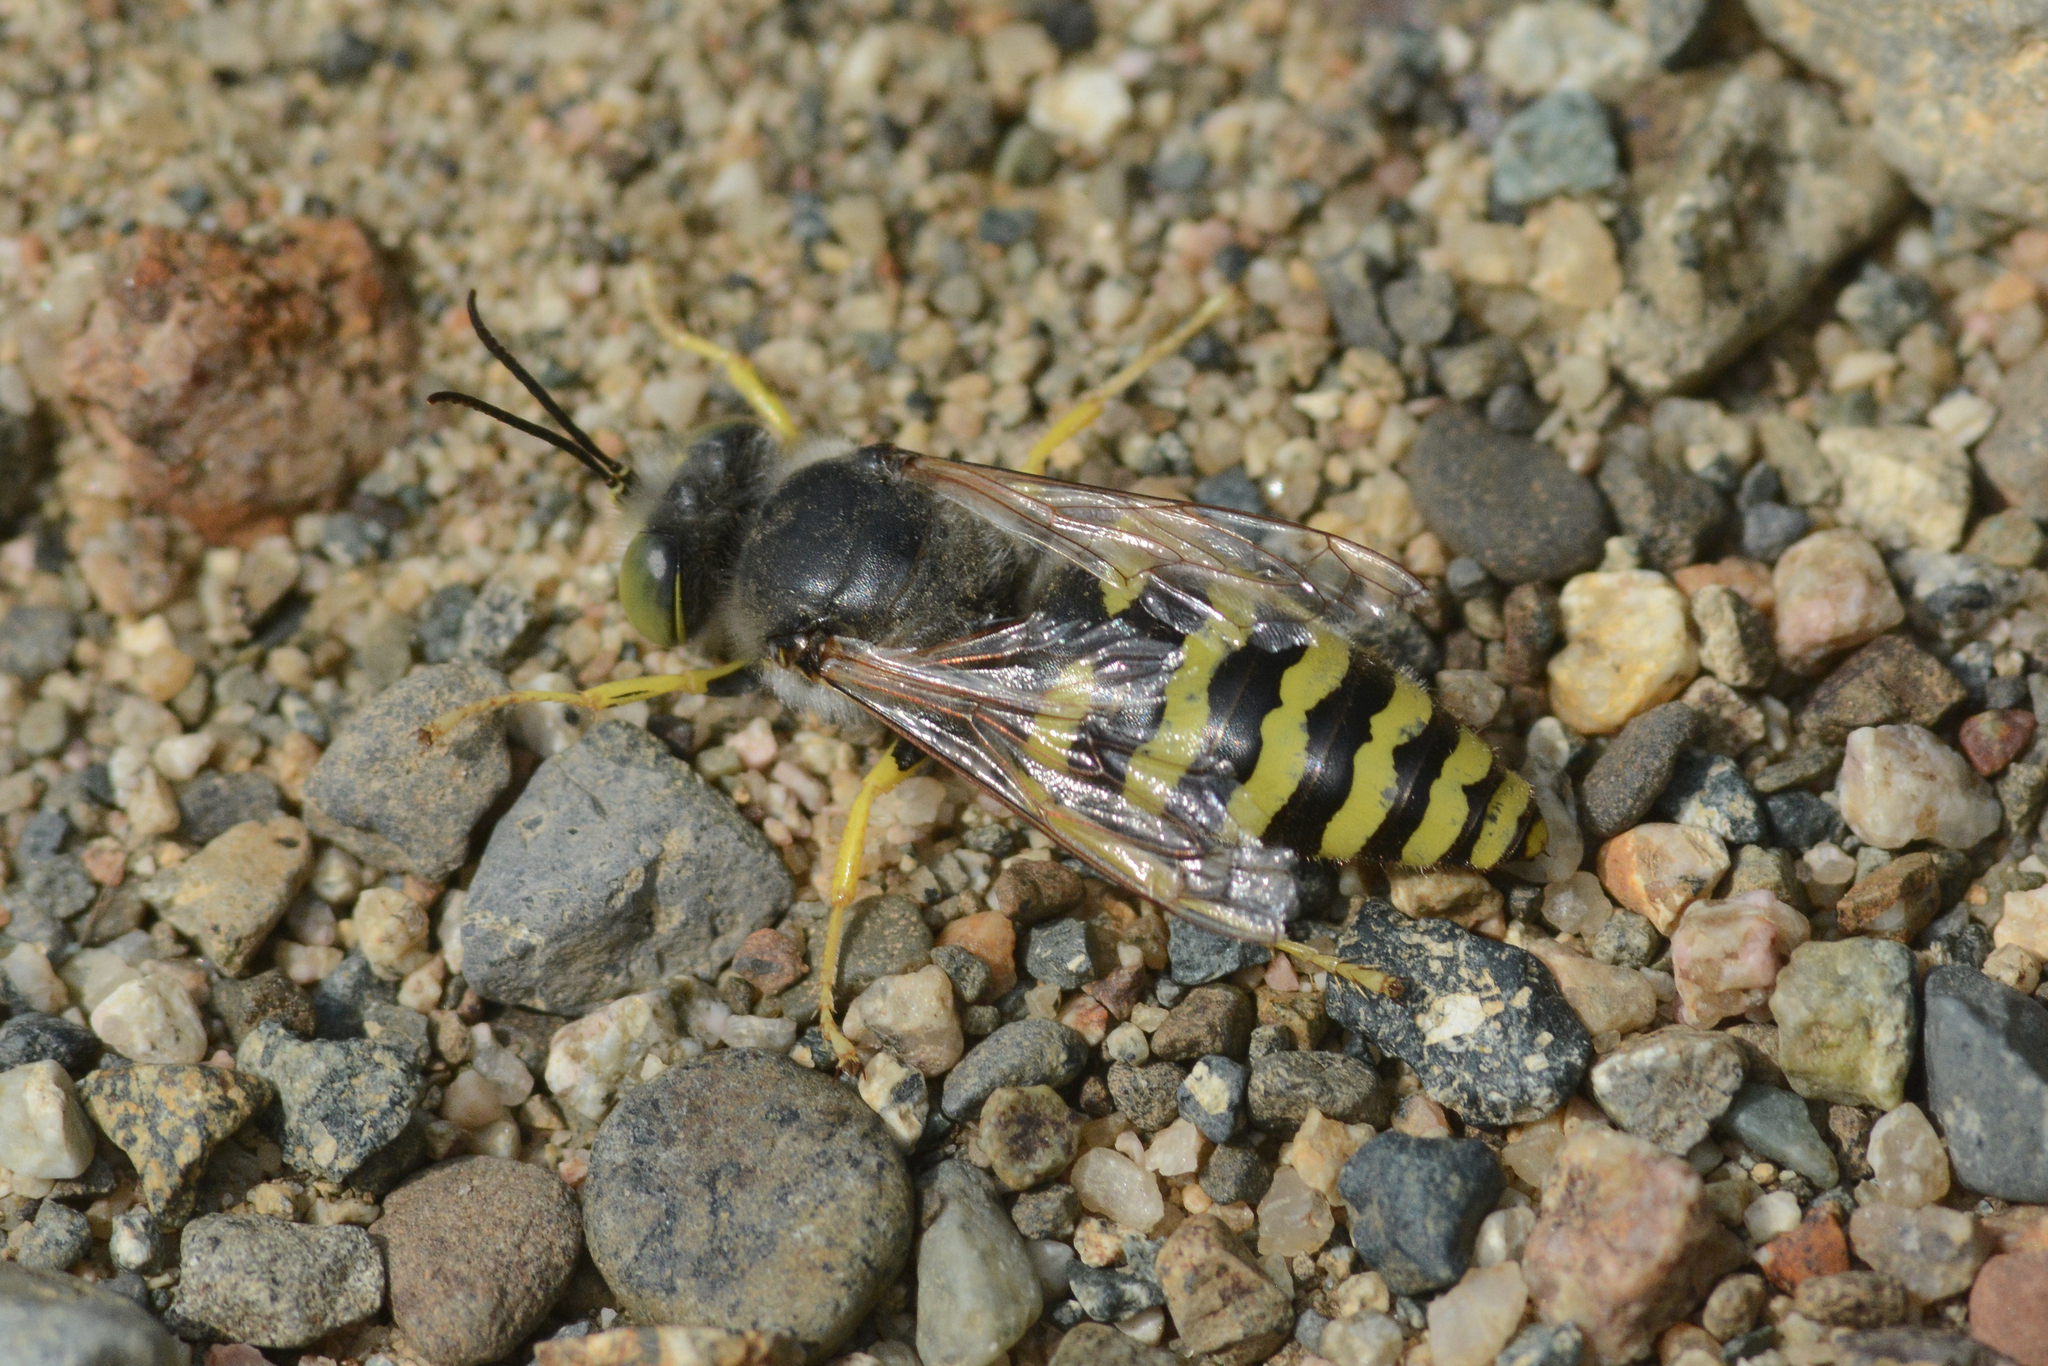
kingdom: Animalia
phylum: Arthropoda
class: Insecta
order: Hymenoptera
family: Crabronidae
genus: Bembix
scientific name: Bembix americana
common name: American sand wasp
